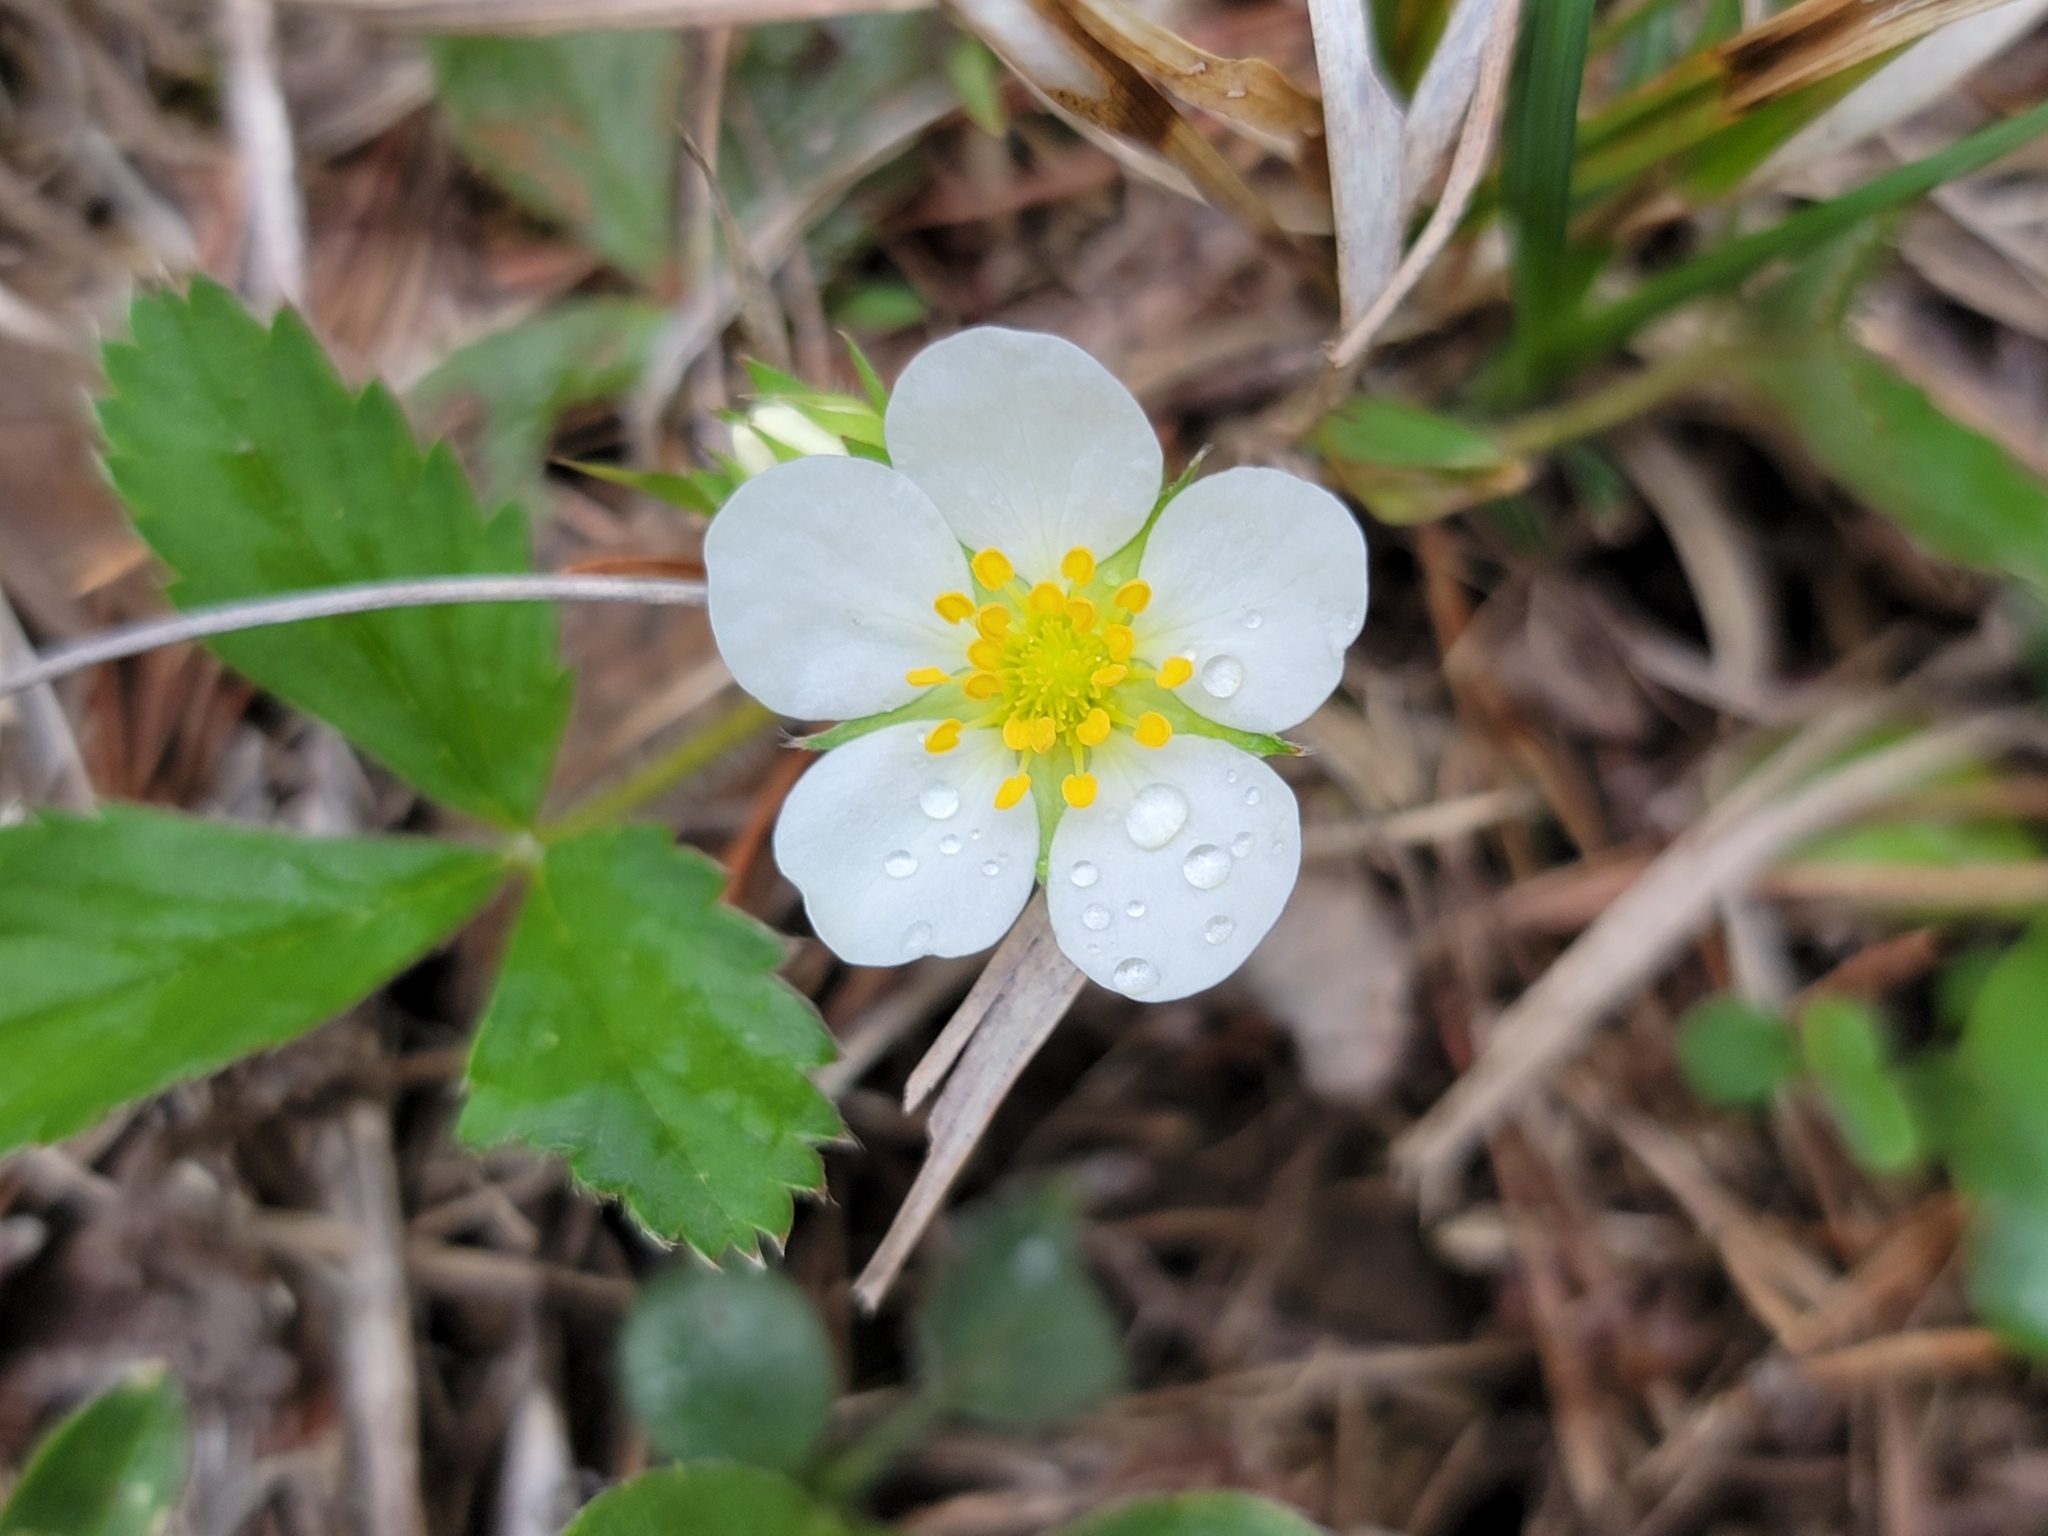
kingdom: Plantae
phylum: Tracheophyta
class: Magnoliopsida
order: Rosales
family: Rosaceae
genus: Fragaria
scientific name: Fragaria virginiana
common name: Thickleaved wild strawberry
